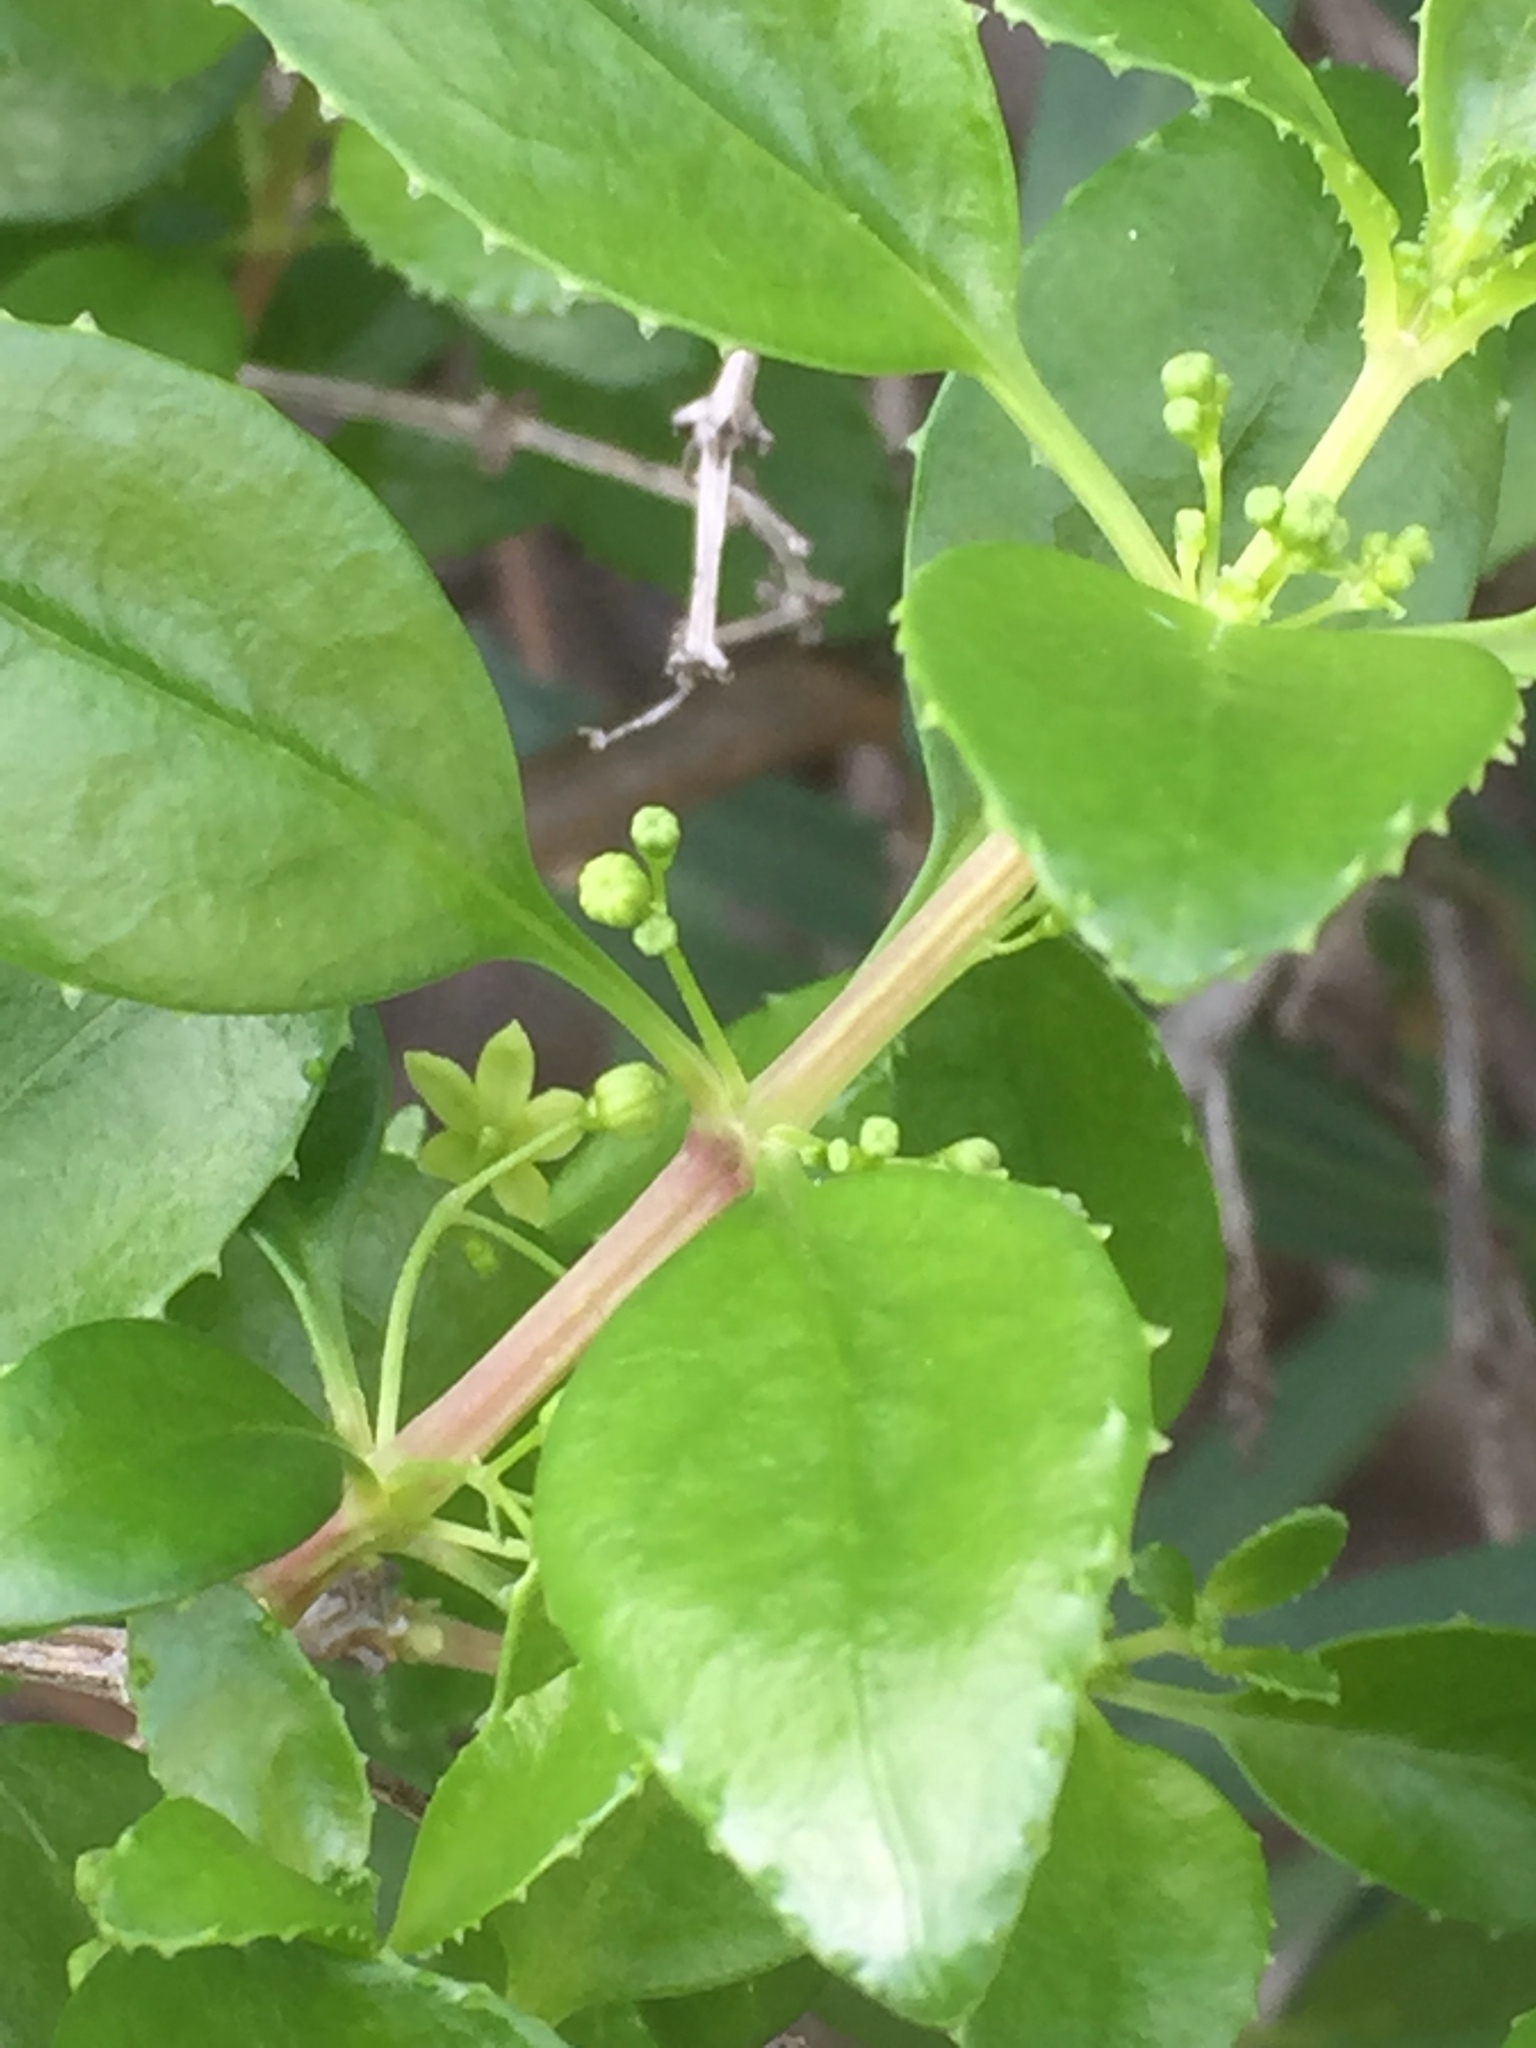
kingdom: Plantae
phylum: Tracheophyta
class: Magnoliopsida
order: Gentianales
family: Rubiaceae
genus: Rubia
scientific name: Rubia fruticosa
